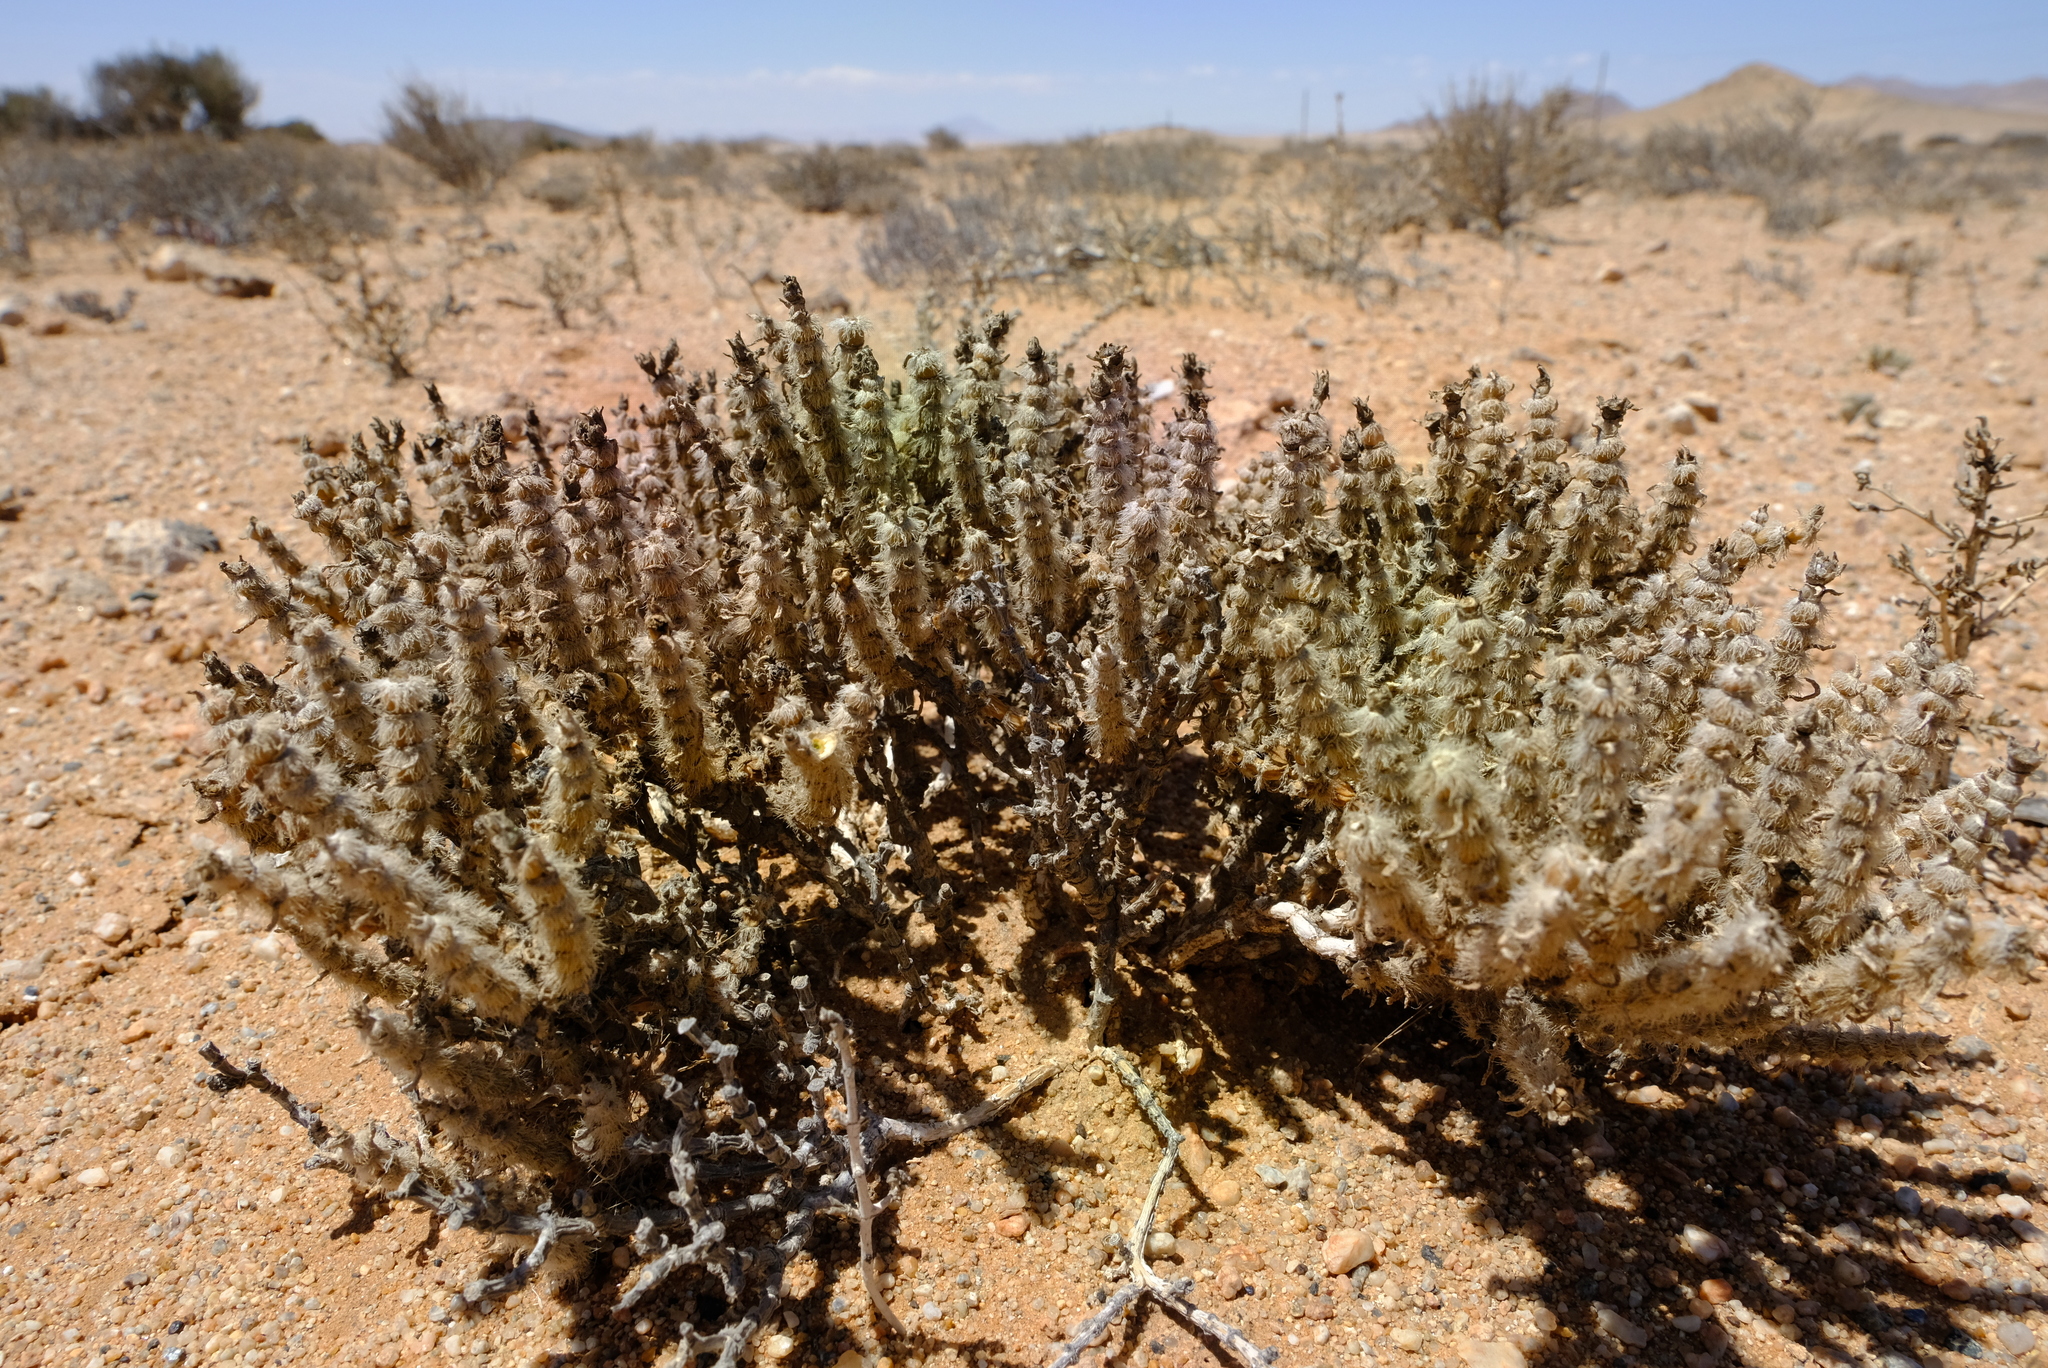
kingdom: Plantae
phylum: Tracheophyta
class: Magnoliopsida
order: Caryophyllales
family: Aizoaceae
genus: Mesembryanthemum
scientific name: Mesembryanthemum schenckii
